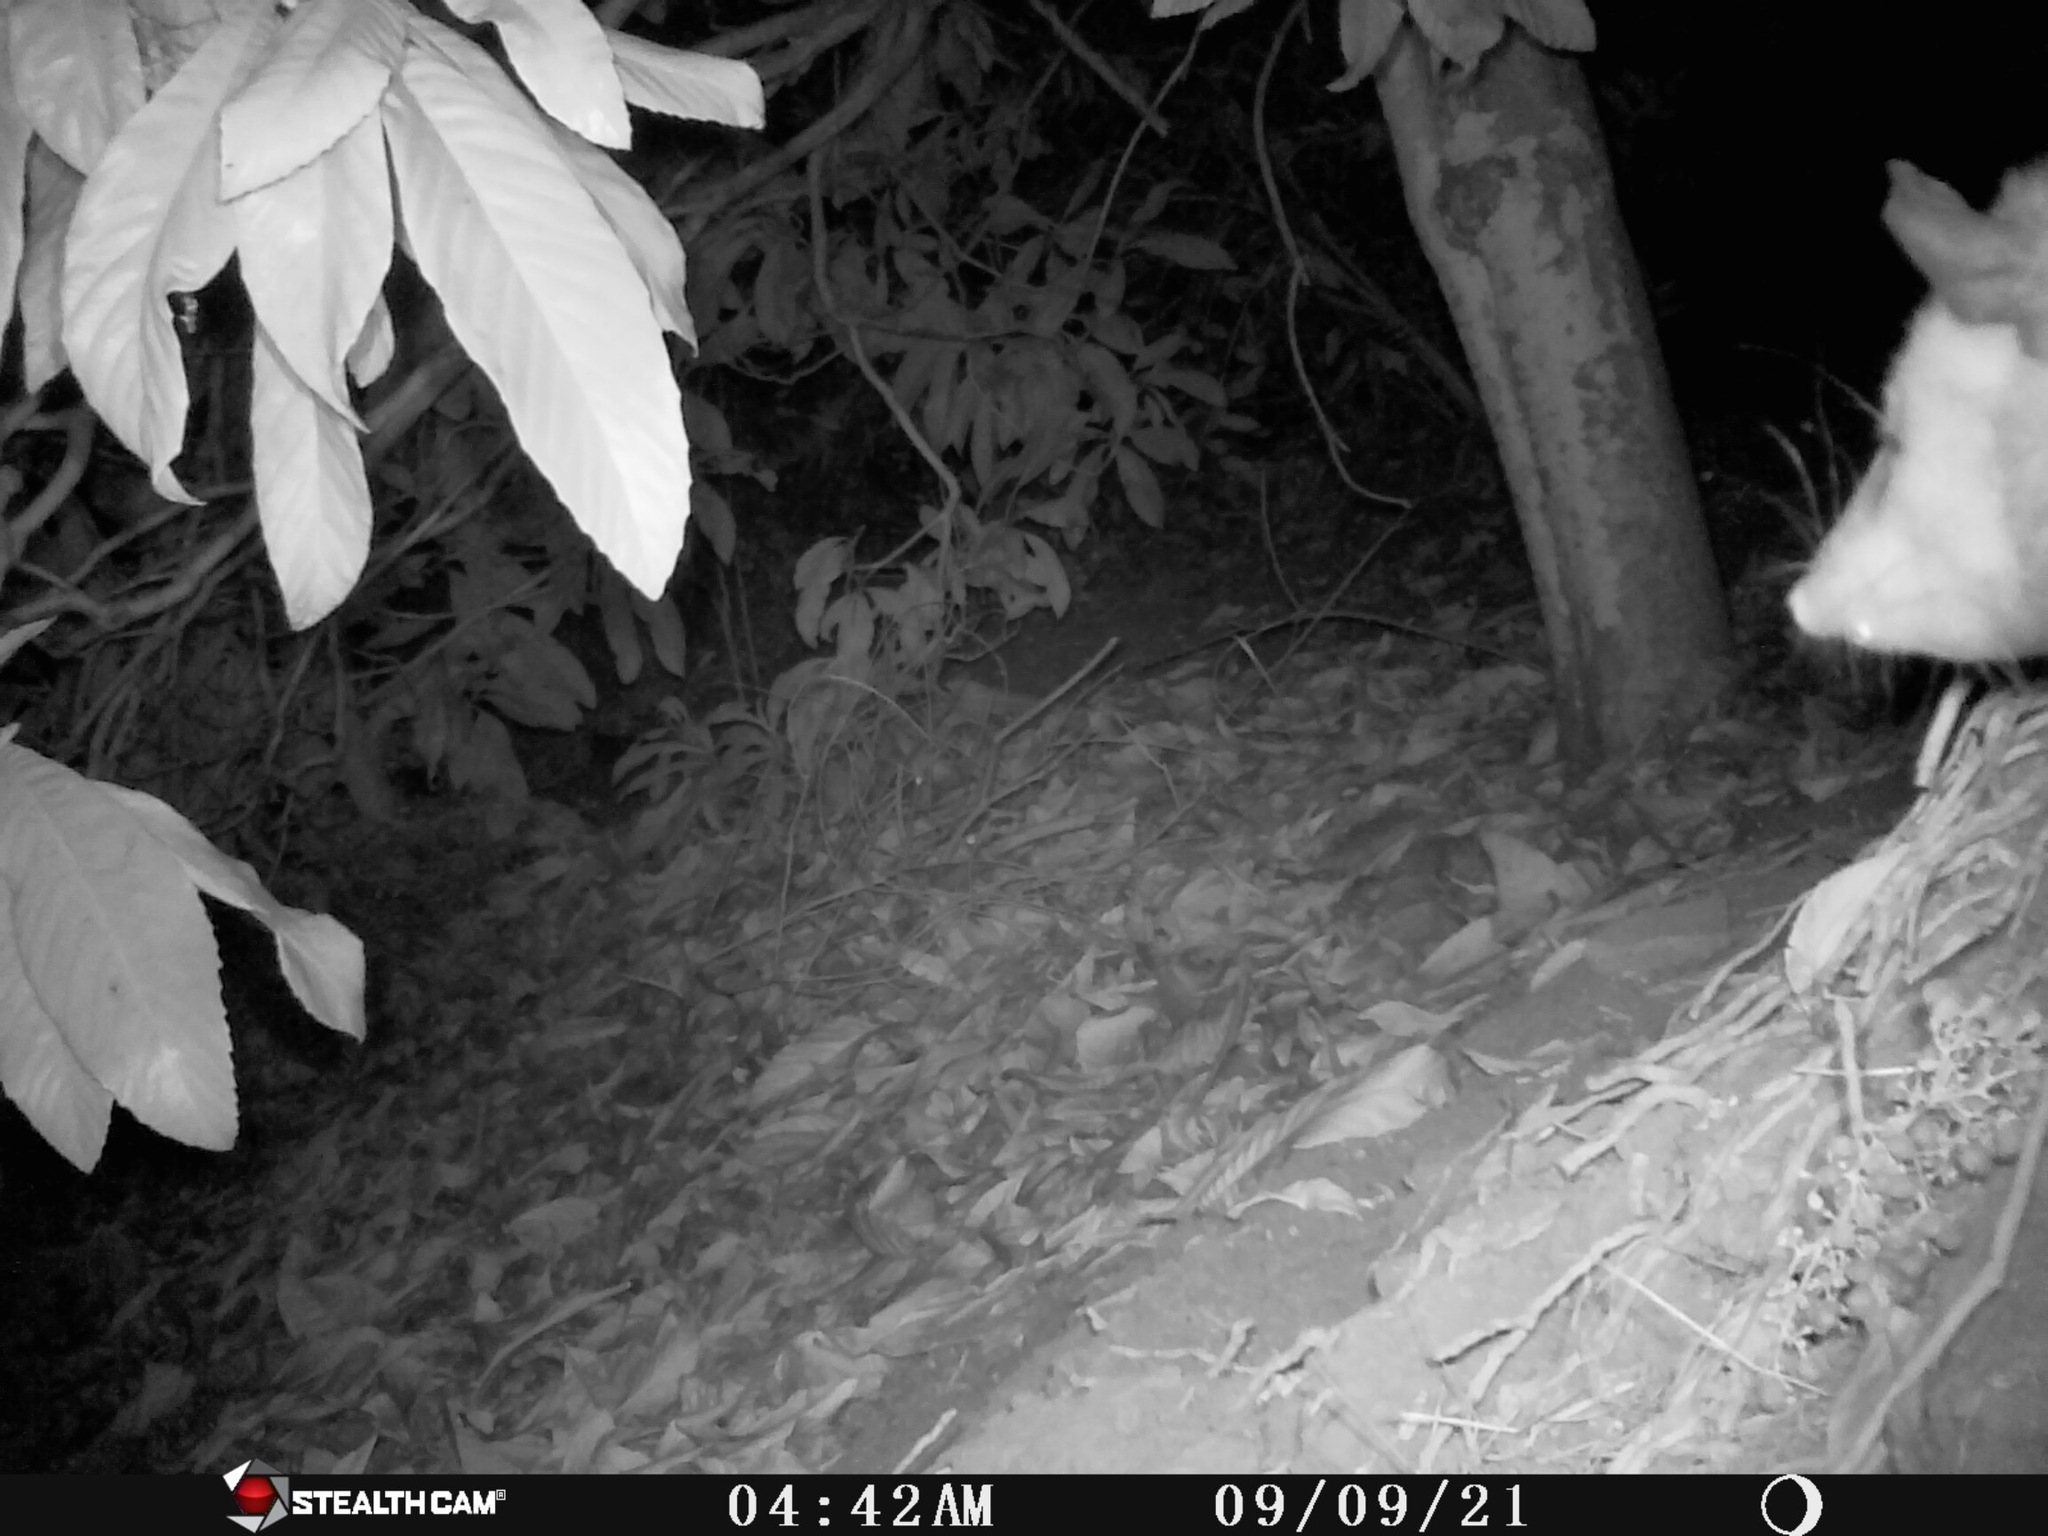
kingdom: Animalia
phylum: Chordata
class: Mammalia
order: Didelphimorphia
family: Didelphidae
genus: Didelphis
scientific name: Didelphis virginiana
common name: Virginia opossum
